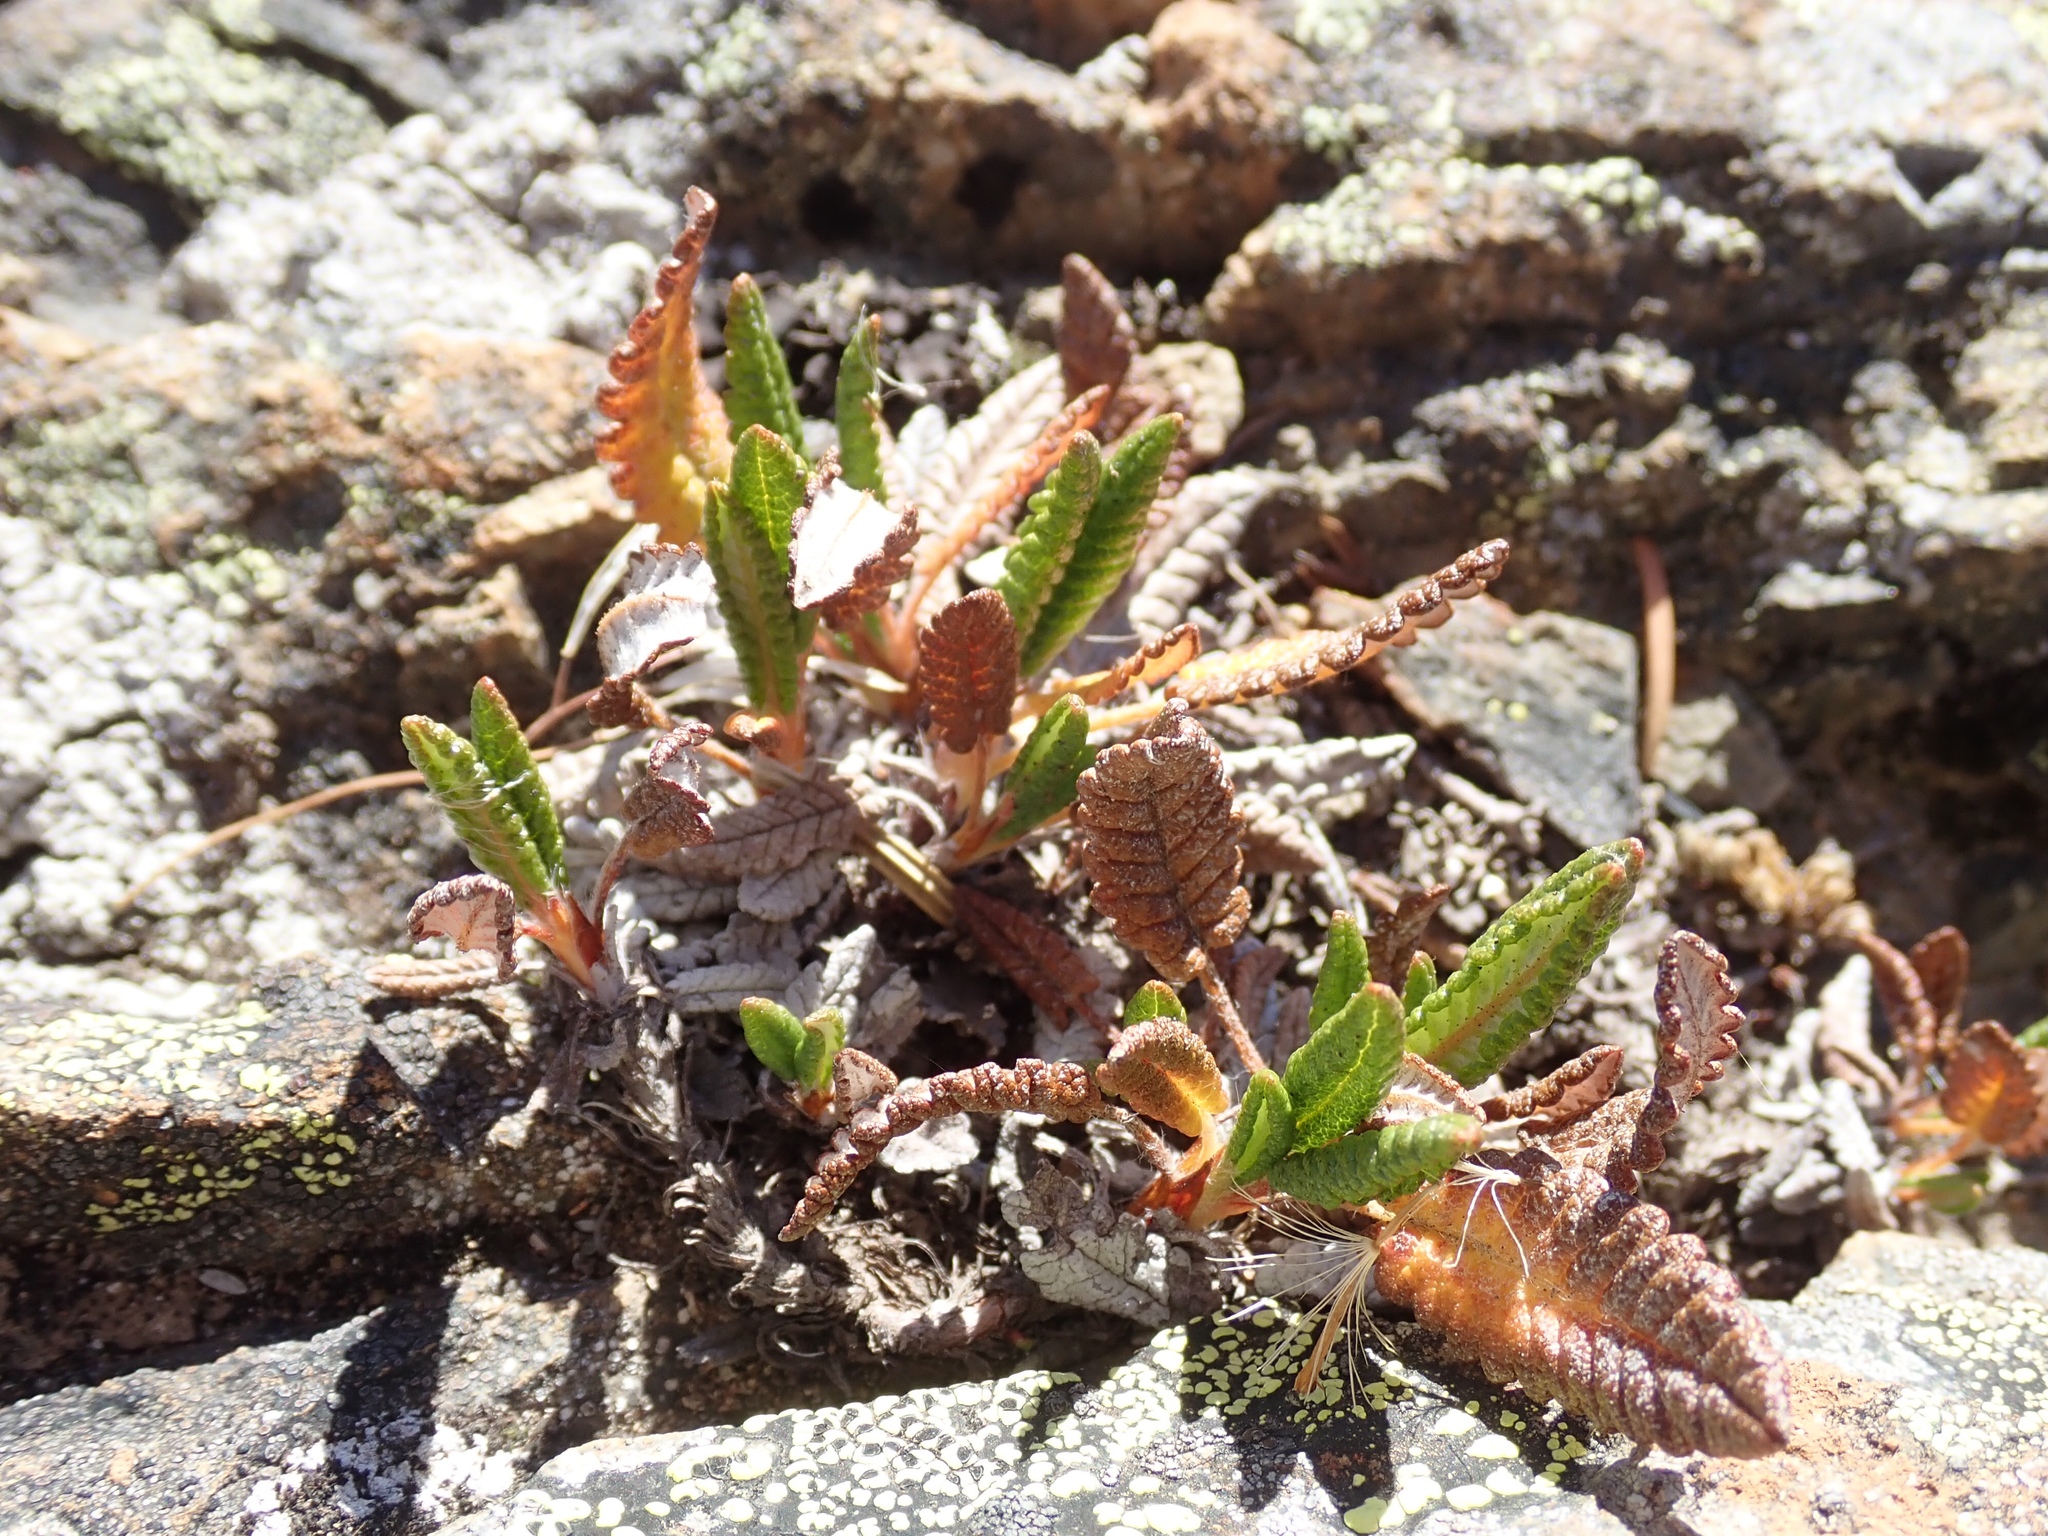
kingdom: Plantae
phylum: Tracheophyta
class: Magnoliopsida
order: Rosales
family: Rosaceae
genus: Dryas
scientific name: Dryas octopetala
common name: Eight-petal mountain-avens
